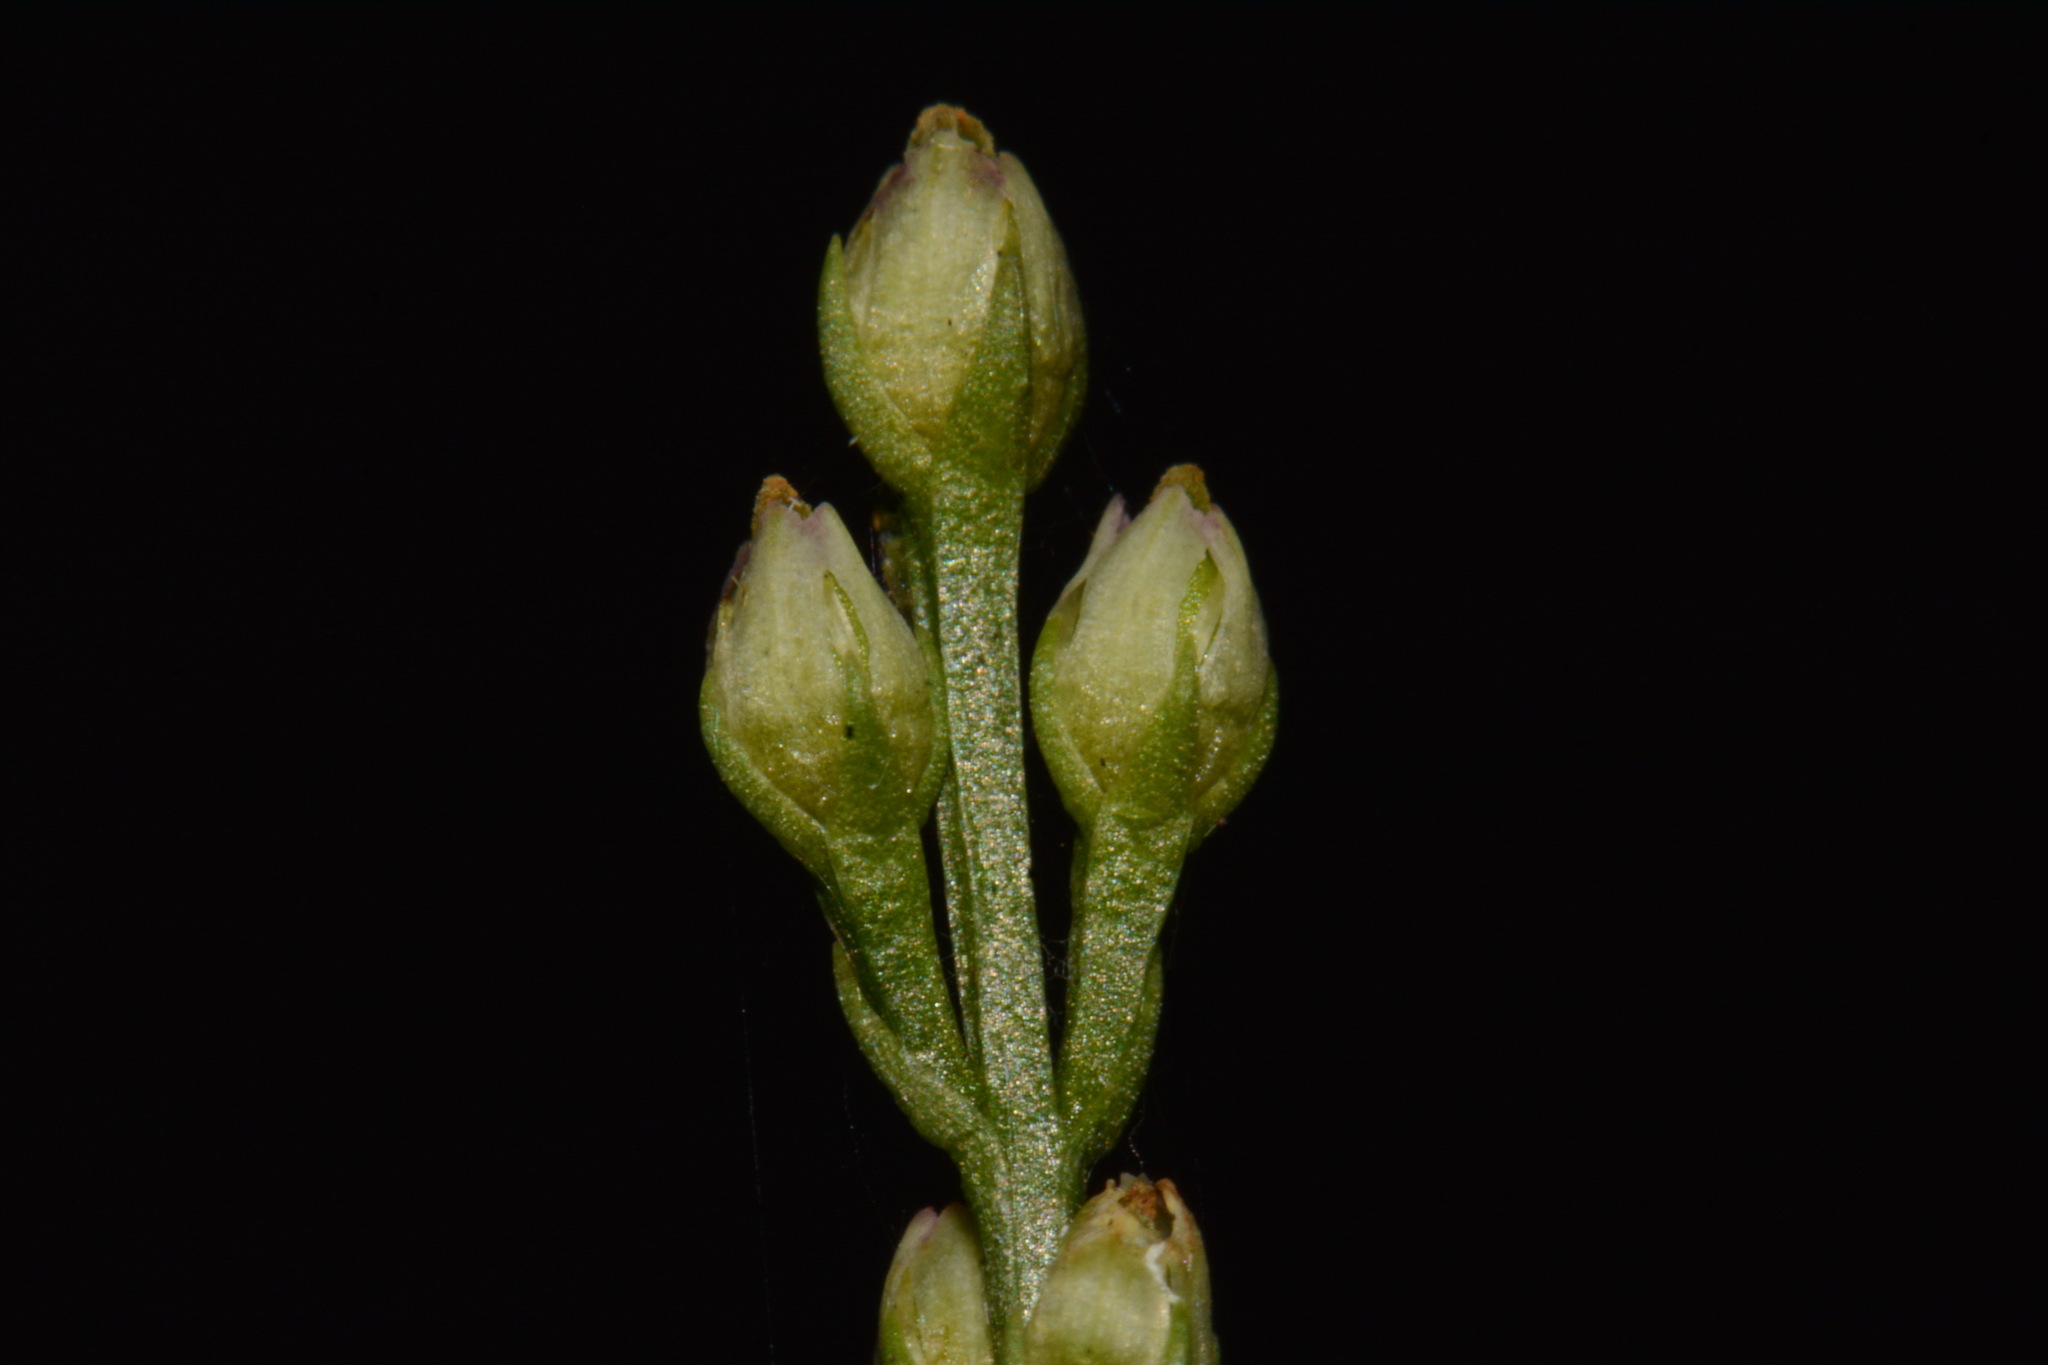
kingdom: Plantae
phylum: Tracheophyta
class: Magnoliopsida
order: Gentianales
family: Gentianaceae
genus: Bartonia
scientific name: Bartonia virginica
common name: Yellow bartonia
